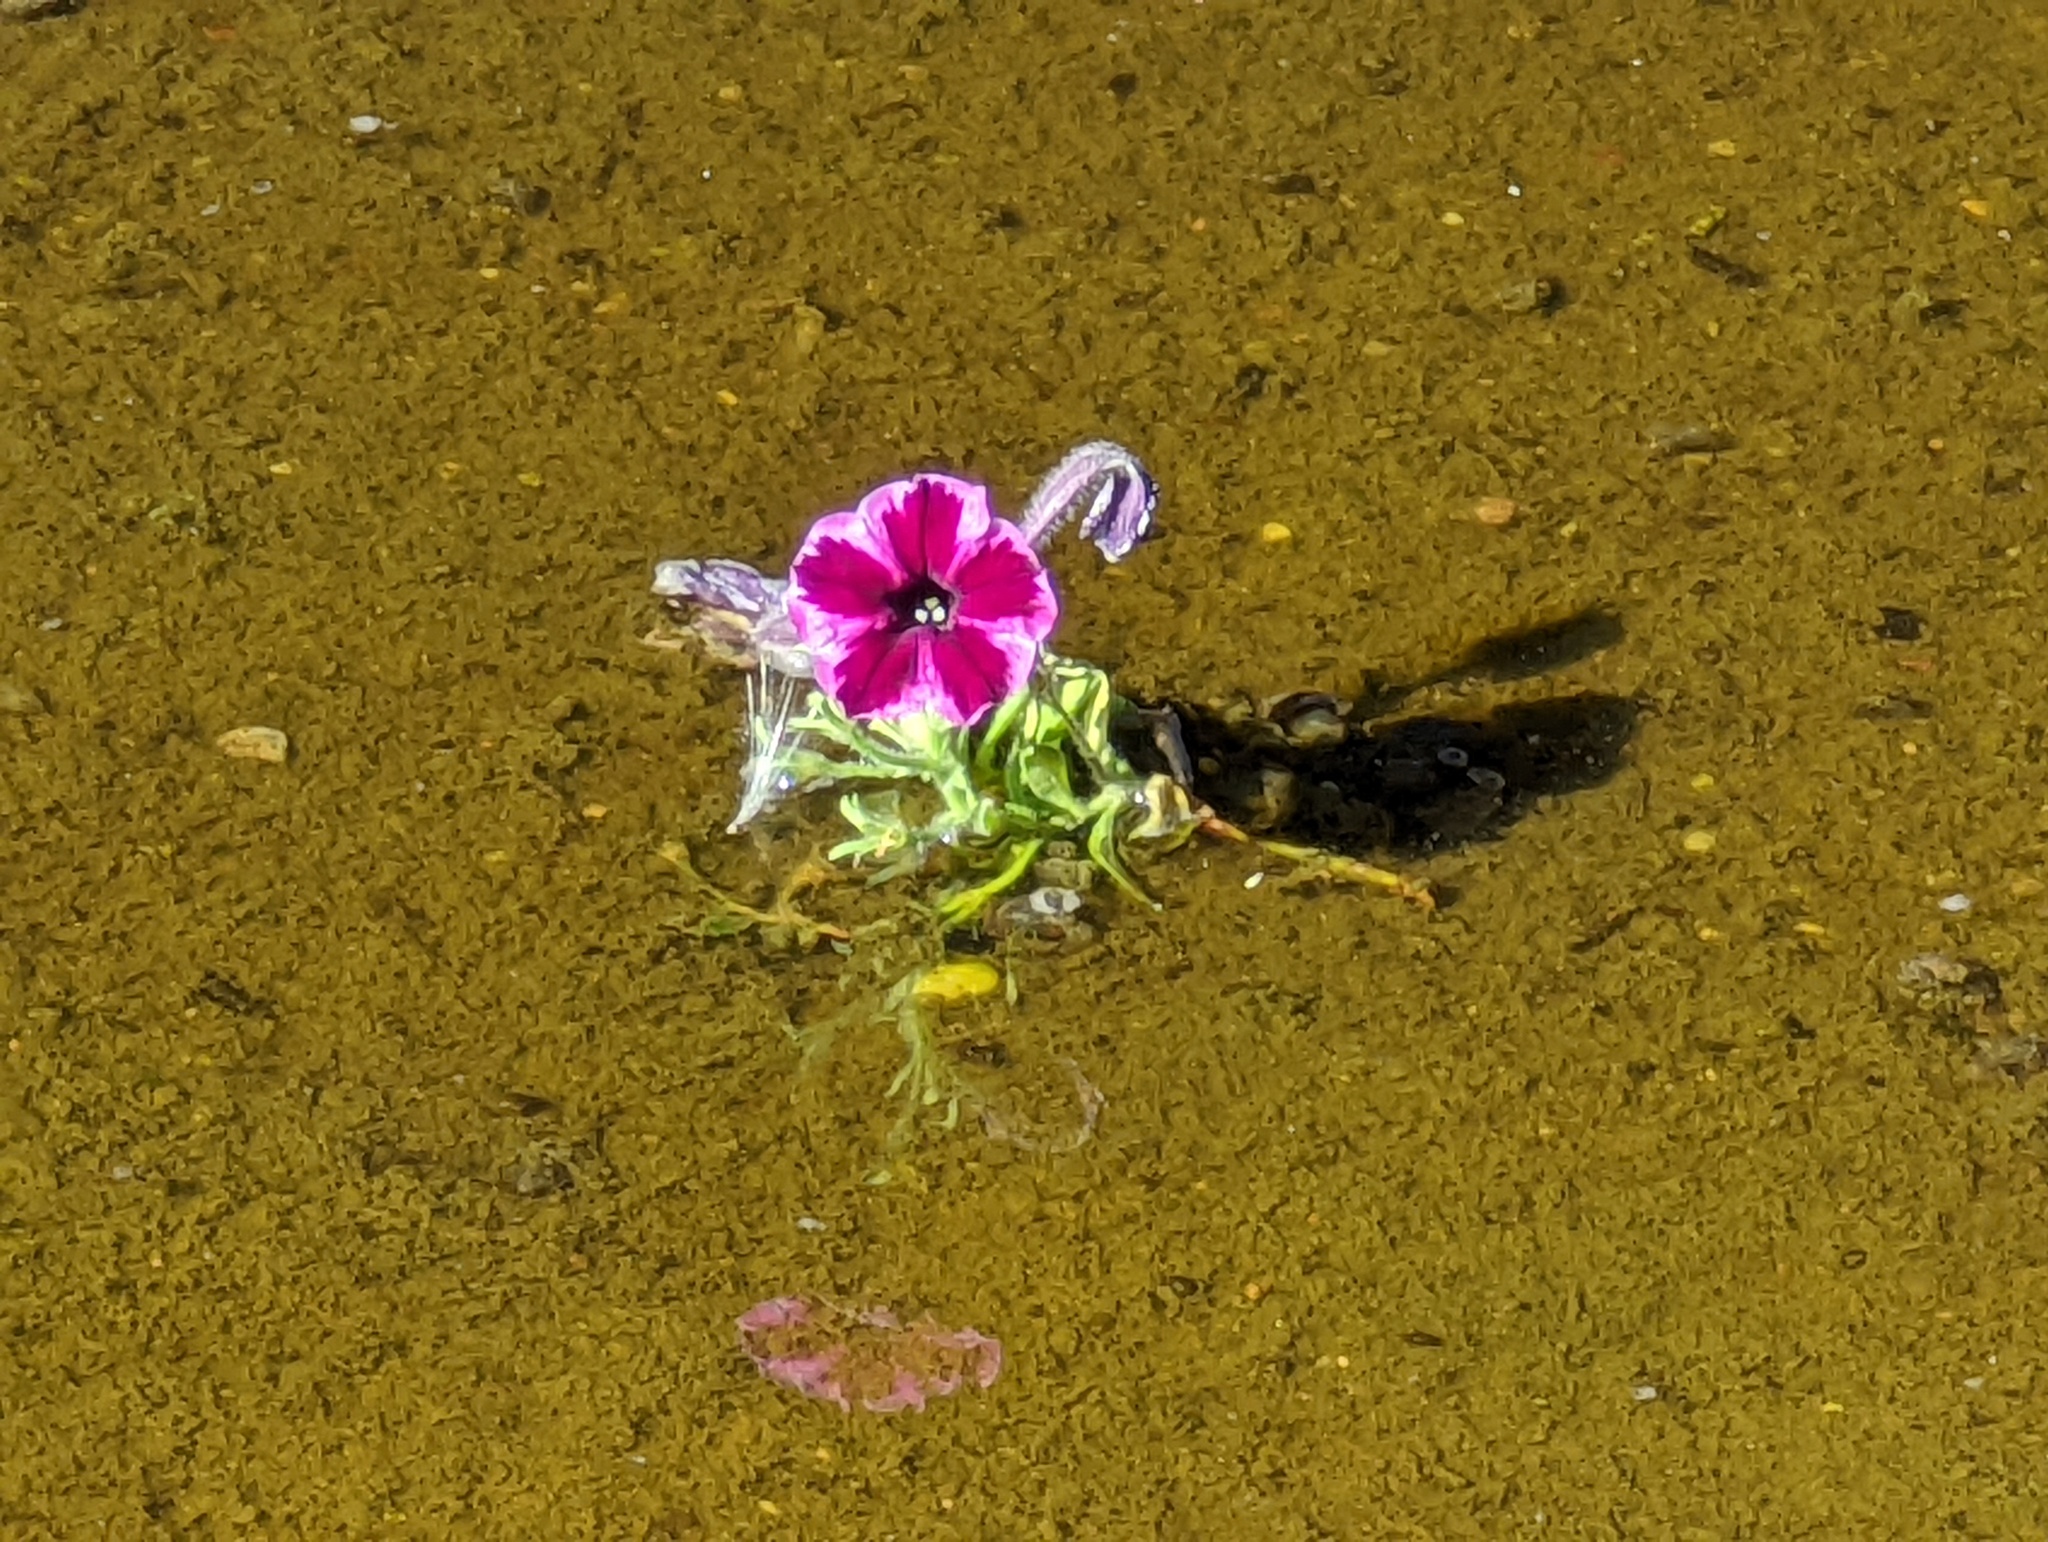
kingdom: Plantae
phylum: Tracheophyta
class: Magnoliopsida
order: Solanales
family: Solanaceae
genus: Petunia
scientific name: Petunia atkinsiana
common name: Petunia
